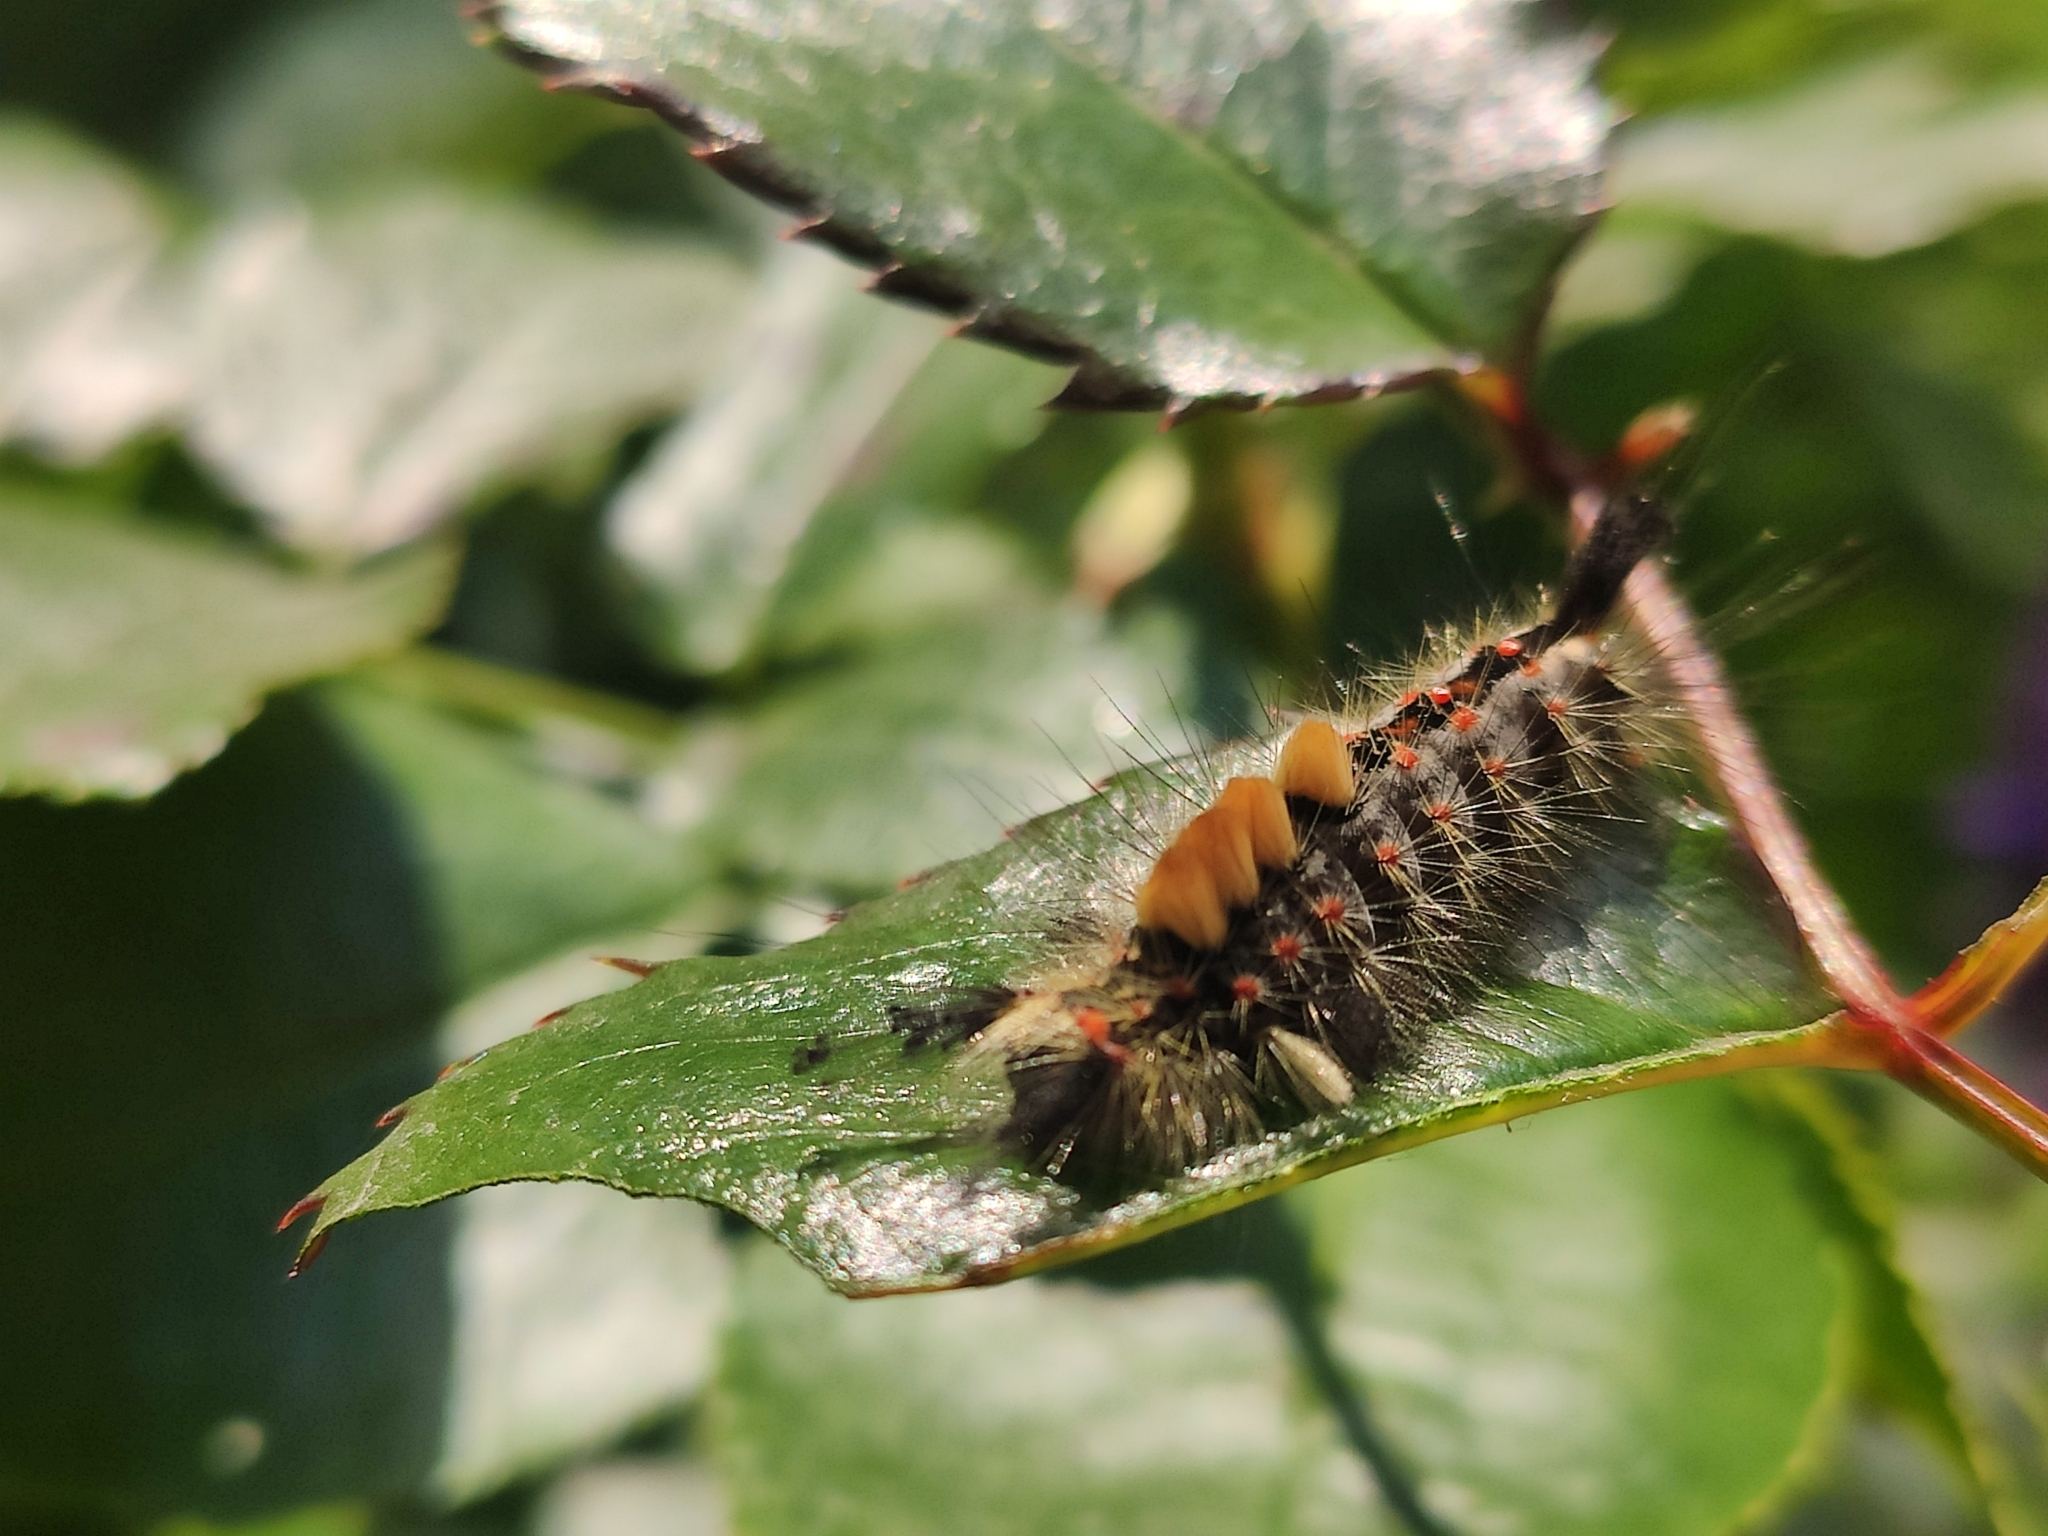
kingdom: Animalia
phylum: Arthropoda
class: Insecta
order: Lepidoptera
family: Erebidae
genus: Orgyia
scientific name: Orgyia antiqua
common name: Vapourer
